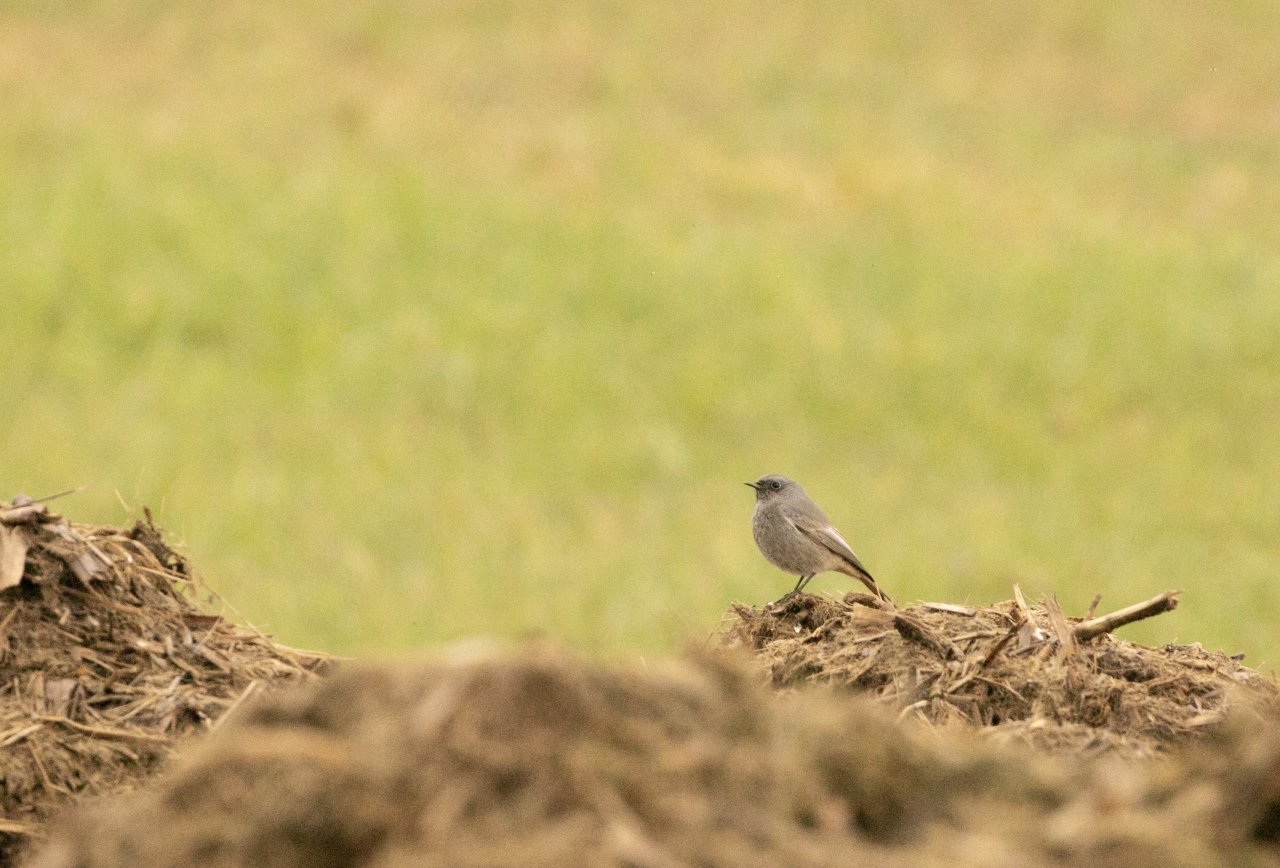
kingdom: Animalia
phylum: Chordata
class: Aves
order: Passeriformes
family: Muscicapidae
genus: Phoenicurus
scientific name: Phoenicurus ochruros
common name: Black redstart
